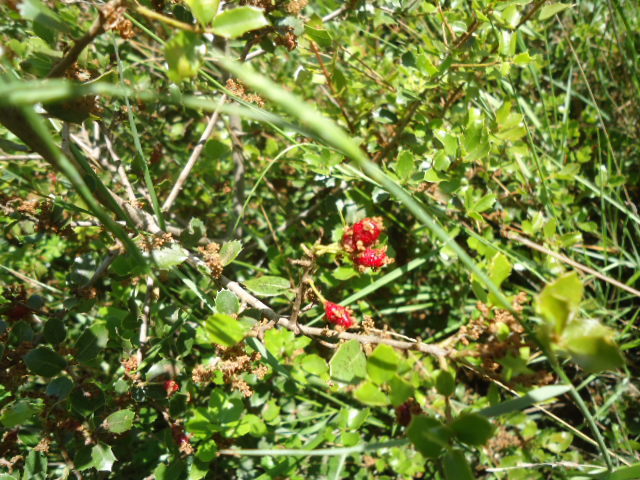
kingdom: Animalia
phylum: Arthropoda
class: Insecta
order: Hymenoptera
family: Cynipidae
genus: Plagiotrochus
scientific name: Plagiotrochus quercusilicis
